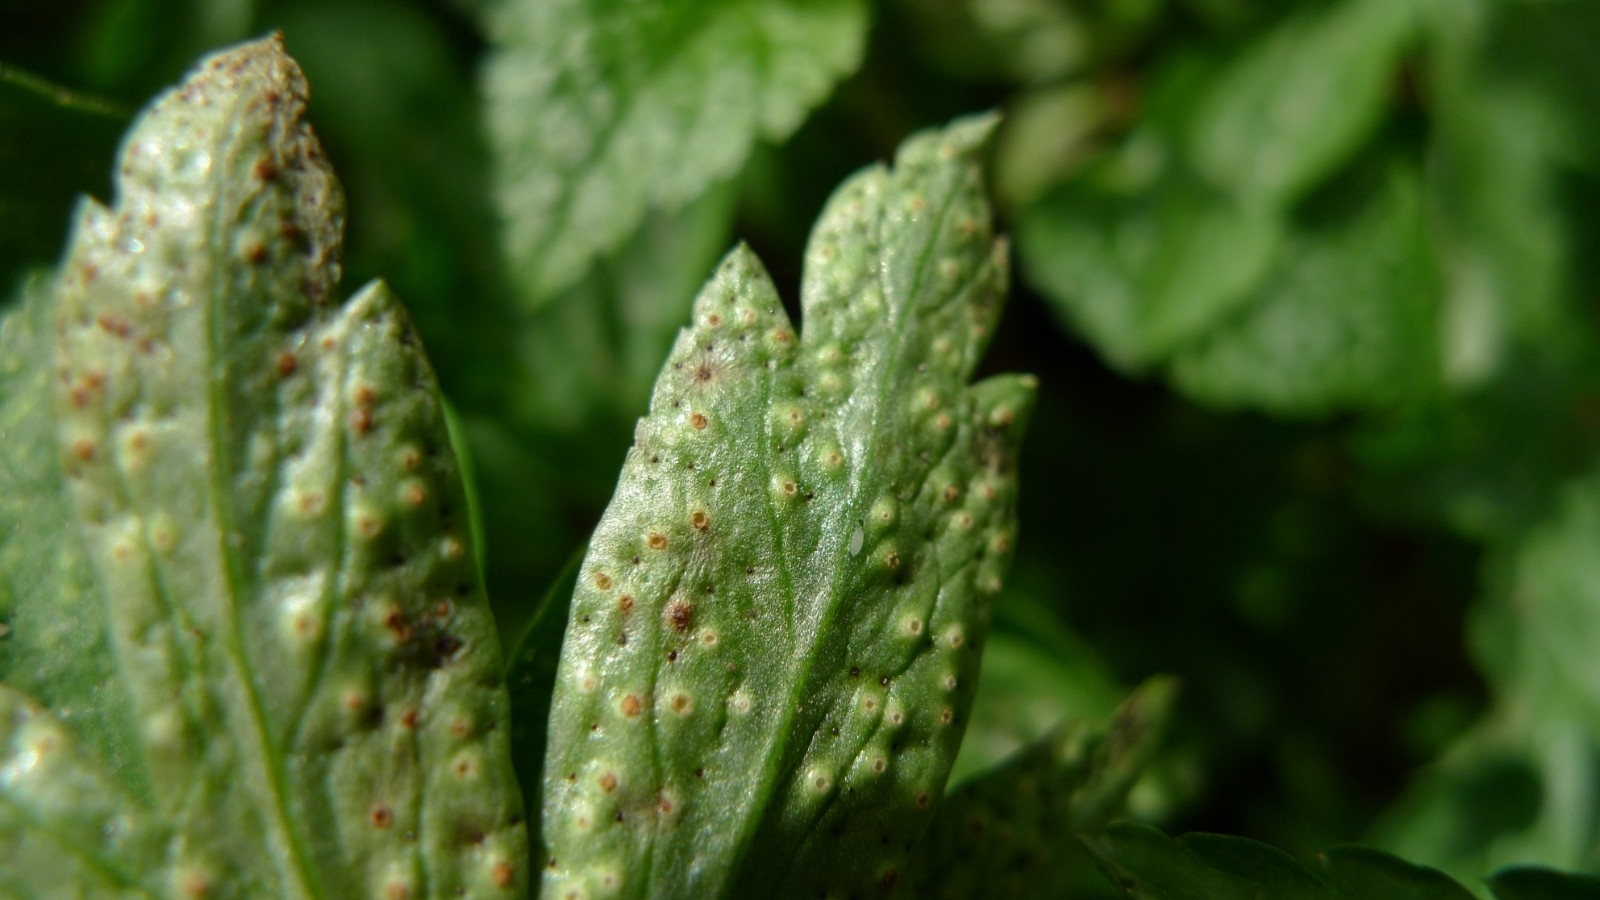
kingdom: Fungi
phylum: Basidiomycota
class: Pucciniomycetes
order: Pucciniales
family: Tranzscheliaceae
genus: Tranzschelia
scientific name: Tranzschelia pruni-spinosae
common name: Blackthorn rust
